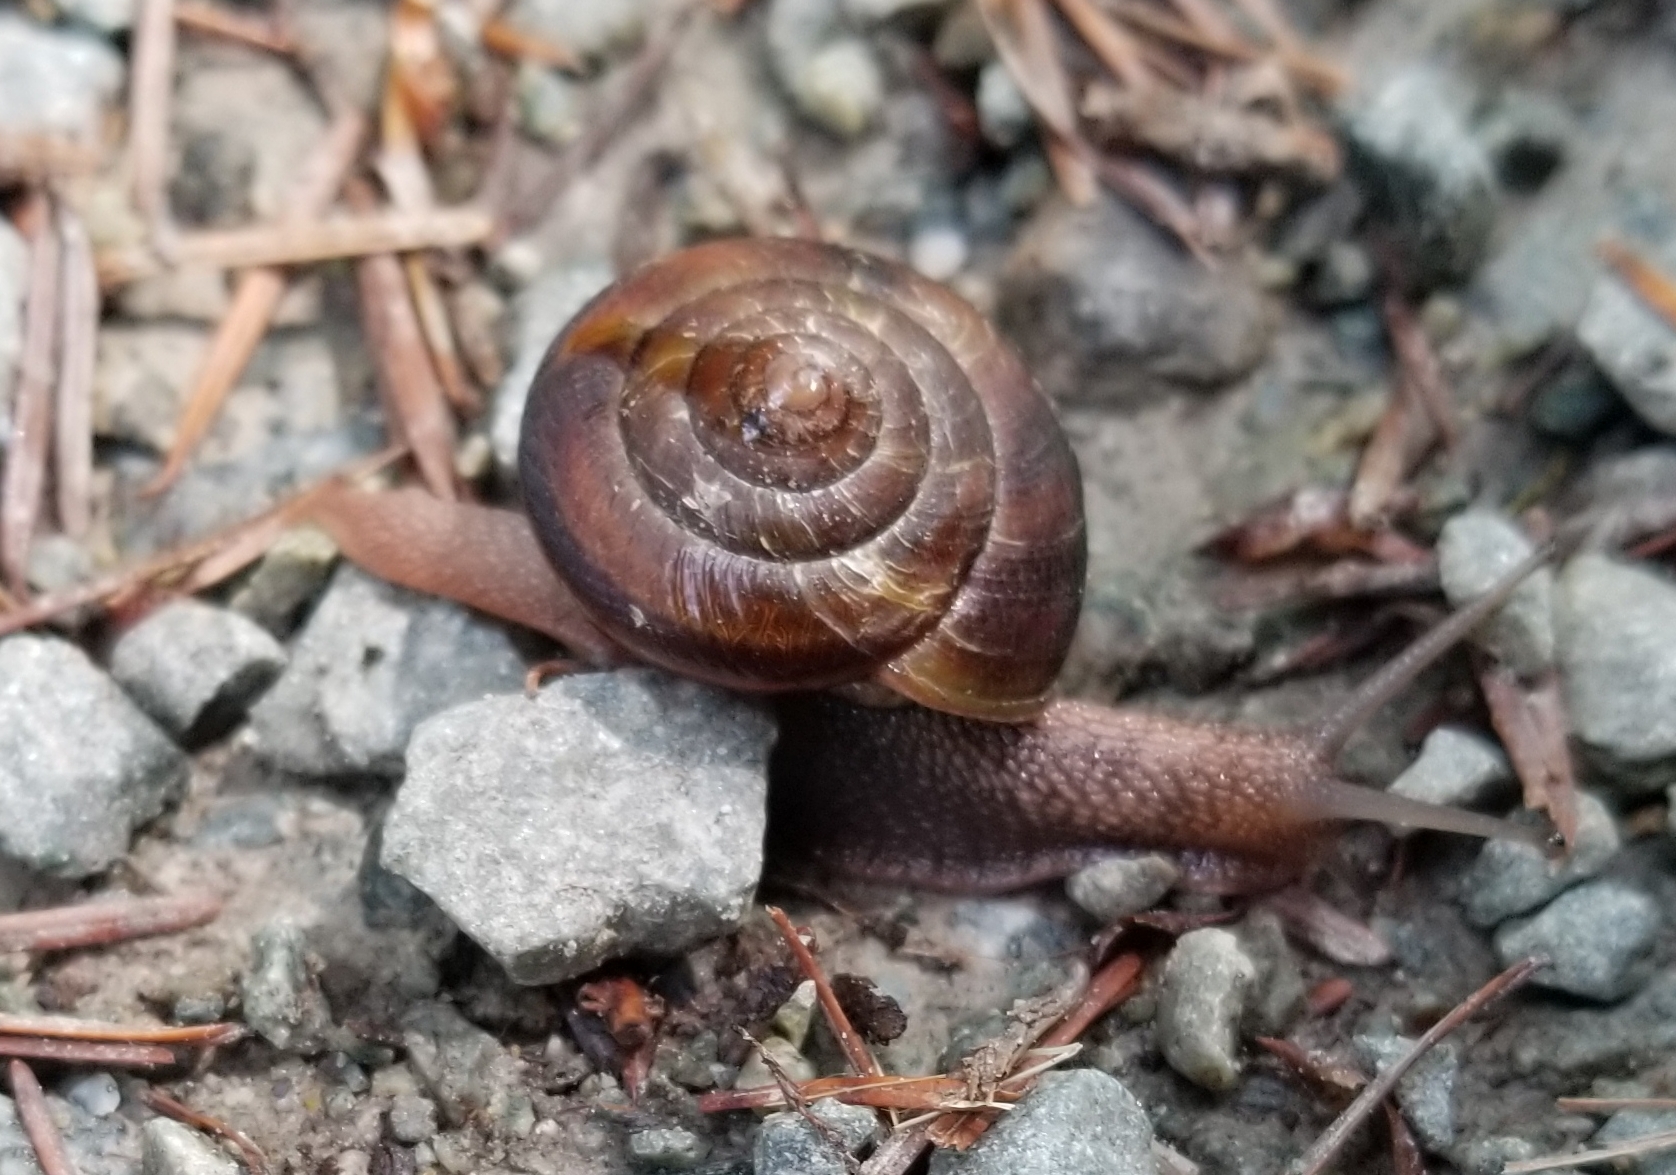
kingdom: Animalia
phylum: Mollusca
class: Gastropoda
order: Stylommatophora
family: Xanthonychidae
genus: Monadenia
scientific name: Monadenia fidelis
